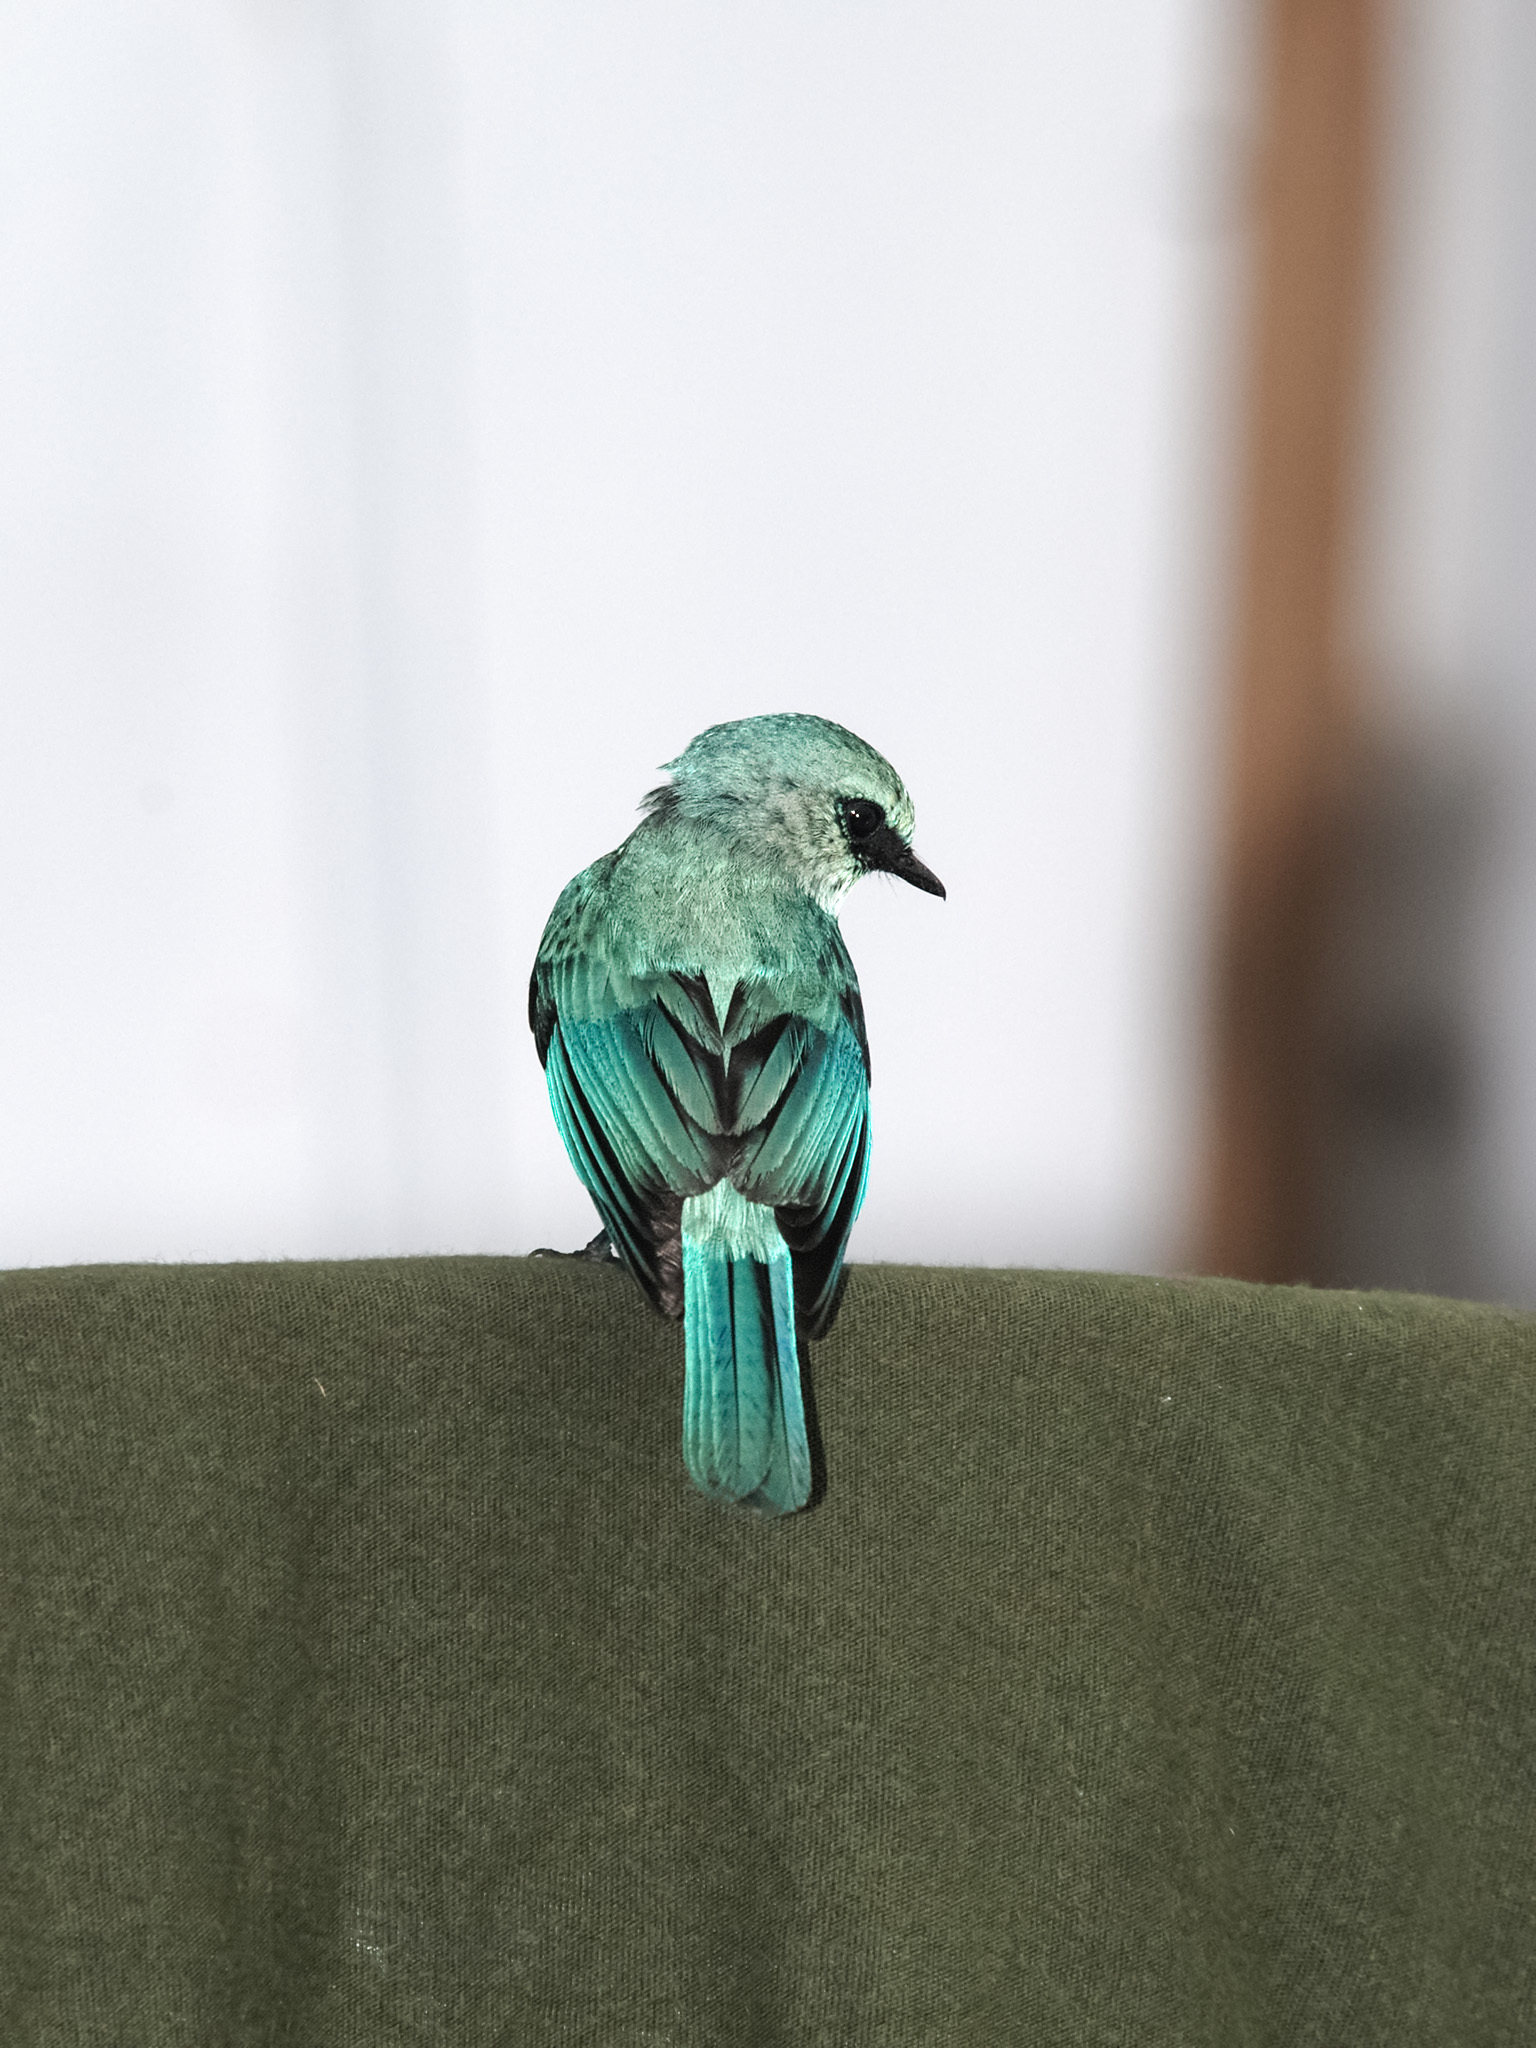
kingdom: Animalia
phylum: Chordata
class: Aves
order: Passeriformes
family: Muscicapidae
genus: Eumyias
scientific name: Eumyias thalassinus
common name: Verditer flycatcher
